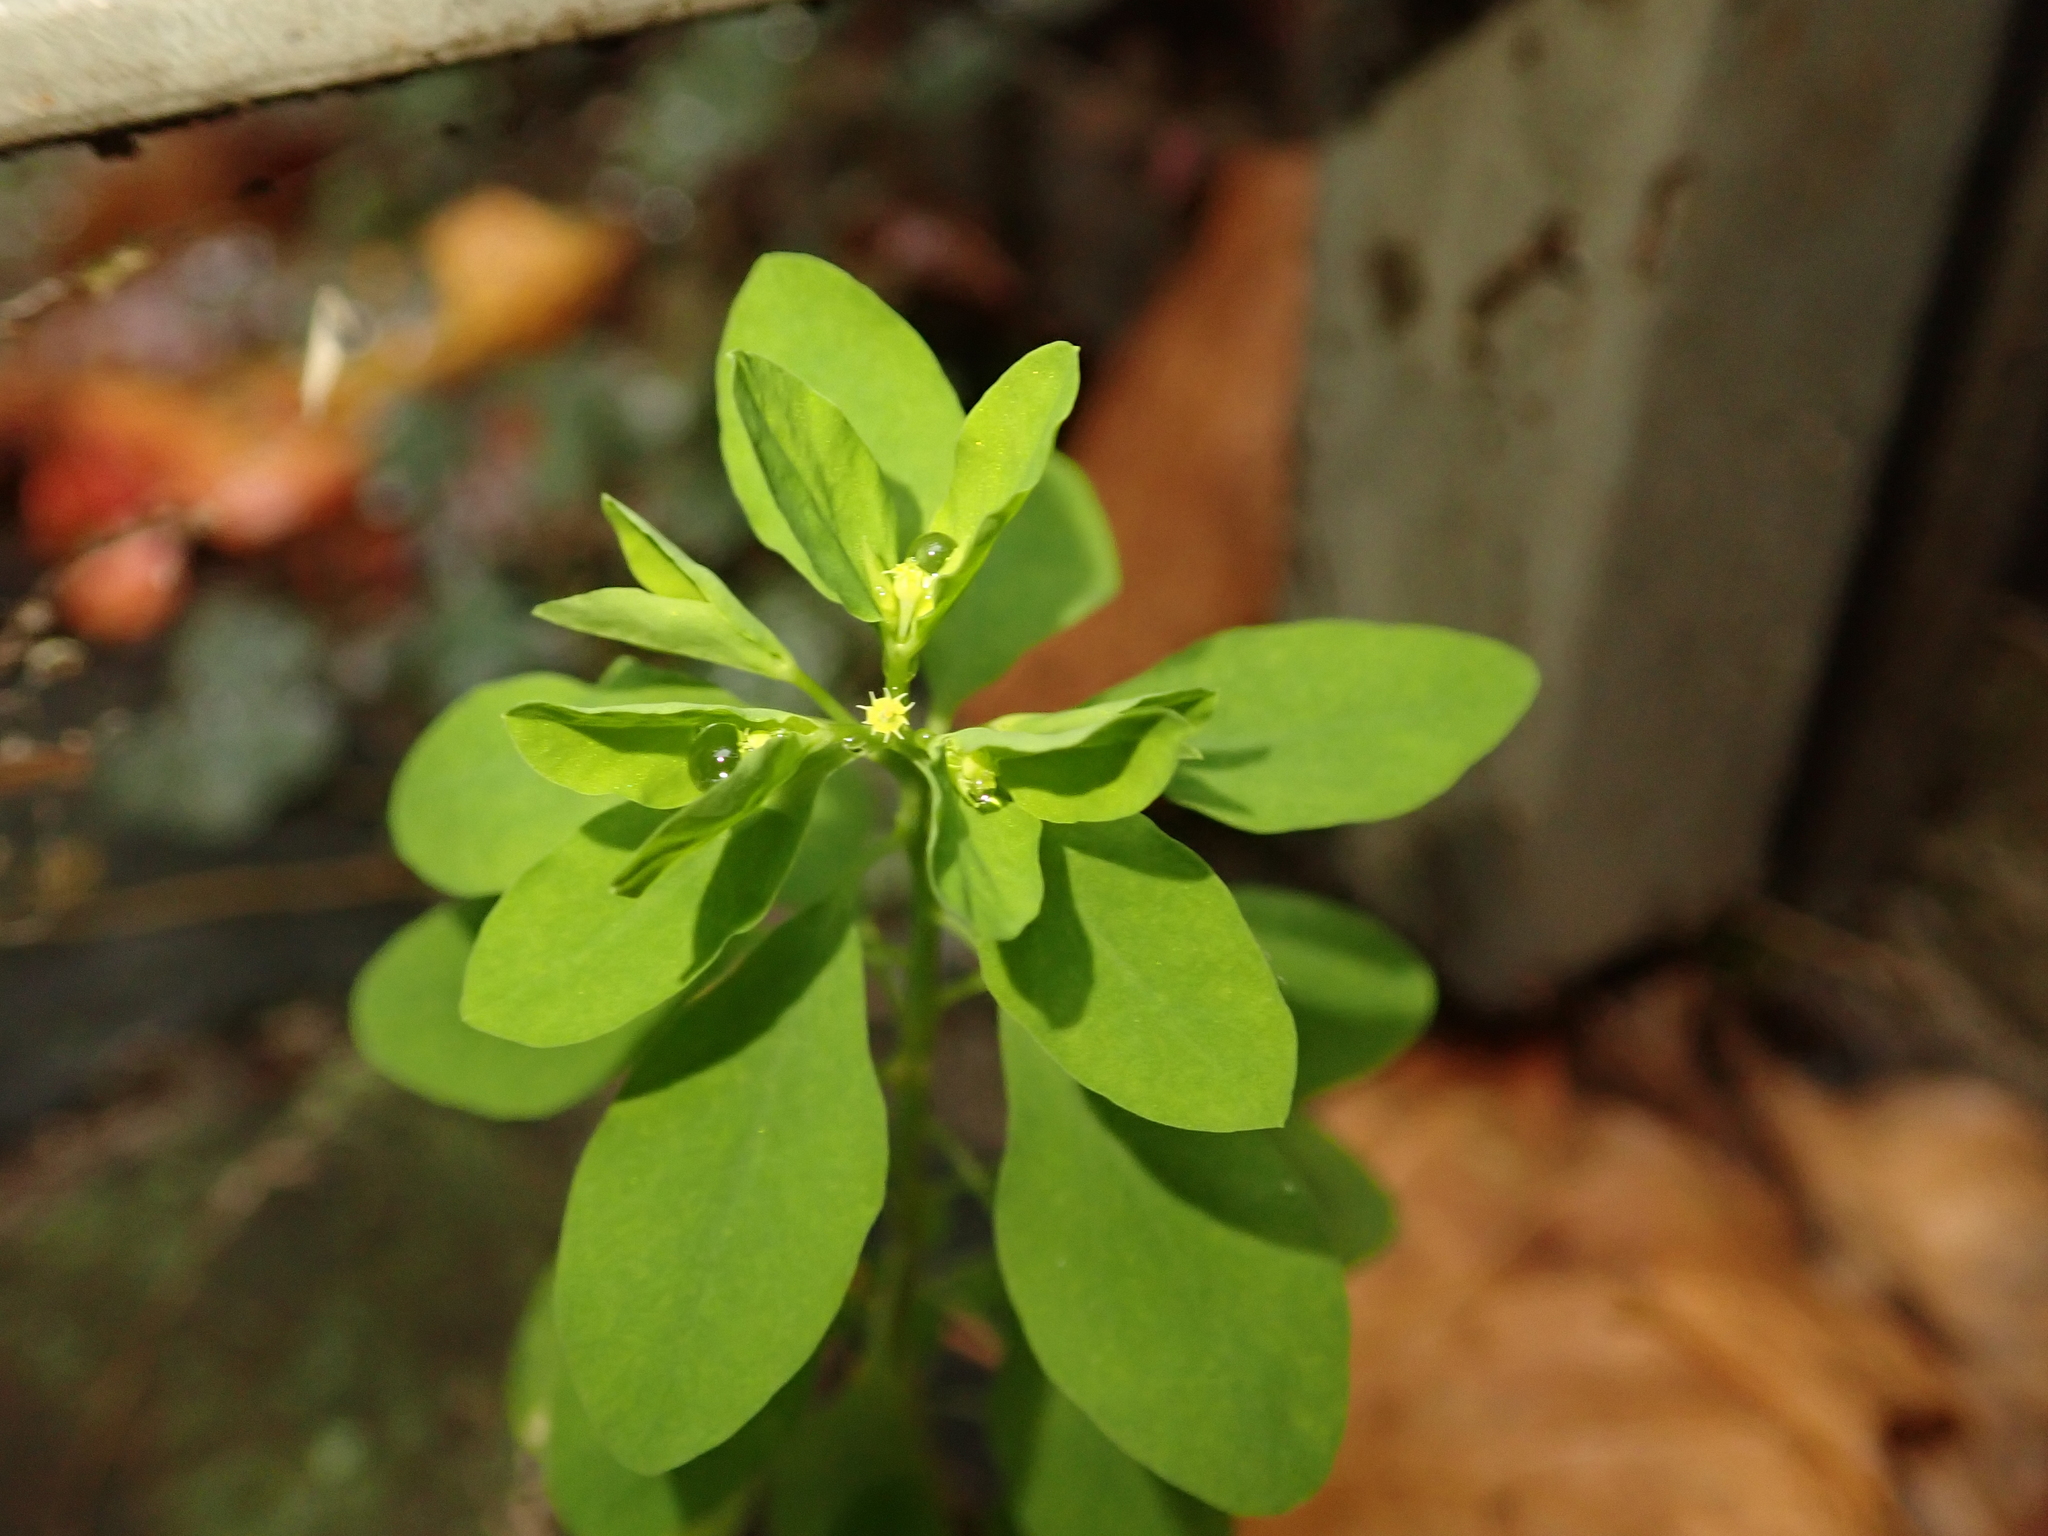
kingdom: Plantae
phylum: Tracheophyta
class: Magnoliopsida
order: Malpighiales
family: Euphorbiaceae
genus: Euphorbia
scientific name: Euphorbia peplus
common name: Petty spurge
